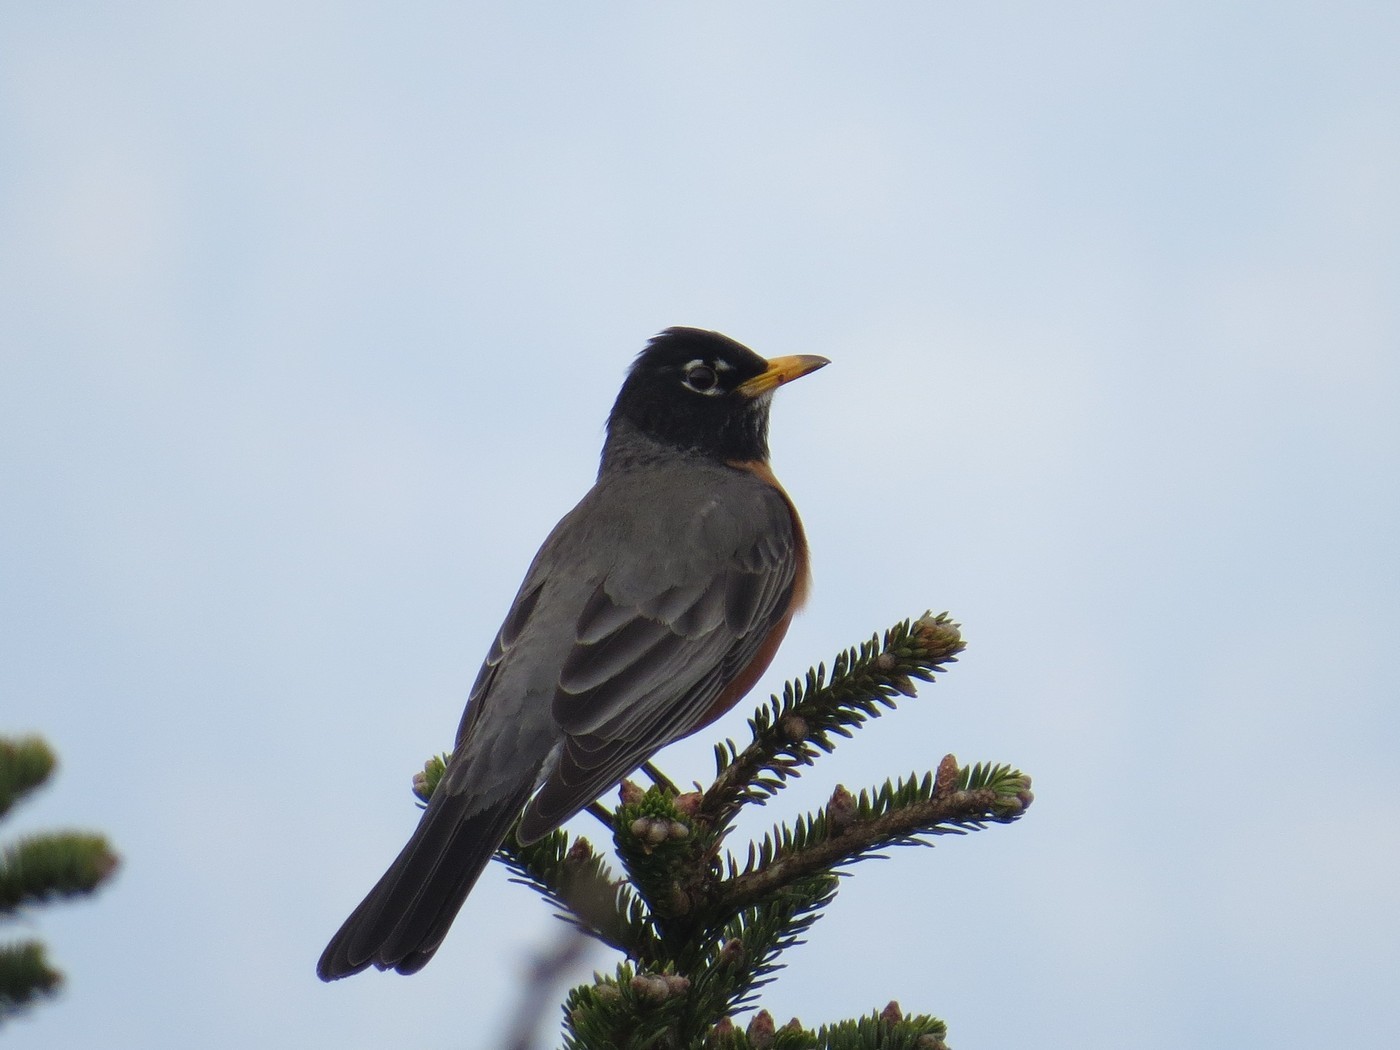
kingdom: Animalia
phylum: Chordata
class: Aves
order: Passeriformes
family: Turdidae
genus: Turdus
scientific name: Turdus migratorius
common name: American robin
